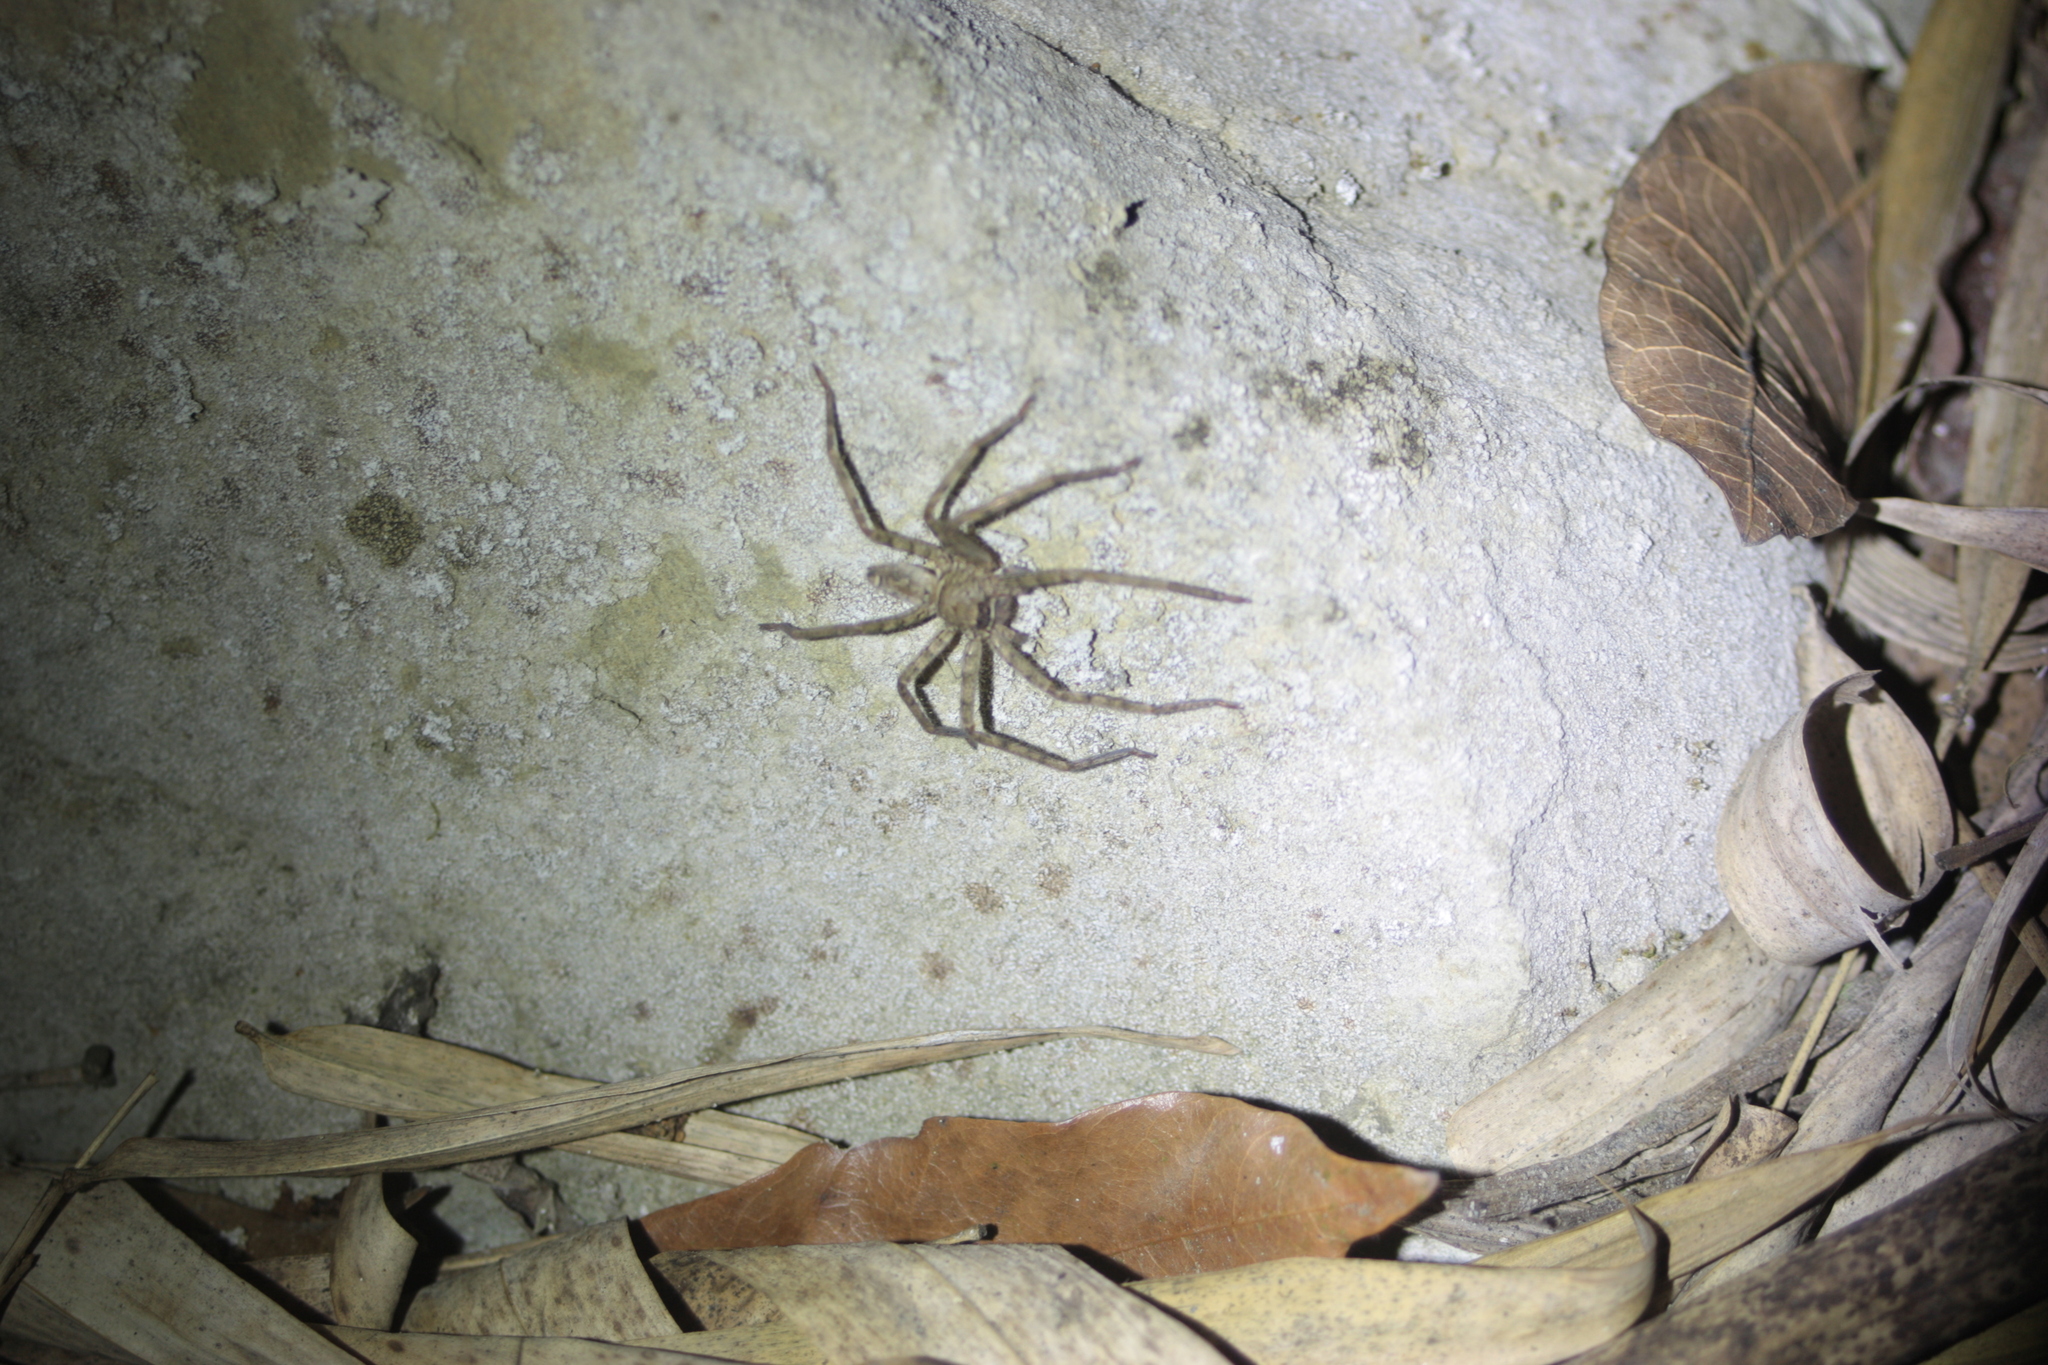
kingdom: Animalia
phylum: Arthropoda
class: Arachnida
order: Araneae
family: Sparassidae
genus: Heteropoda
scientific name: Heteropoda venatoria
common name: Huntsman spider
